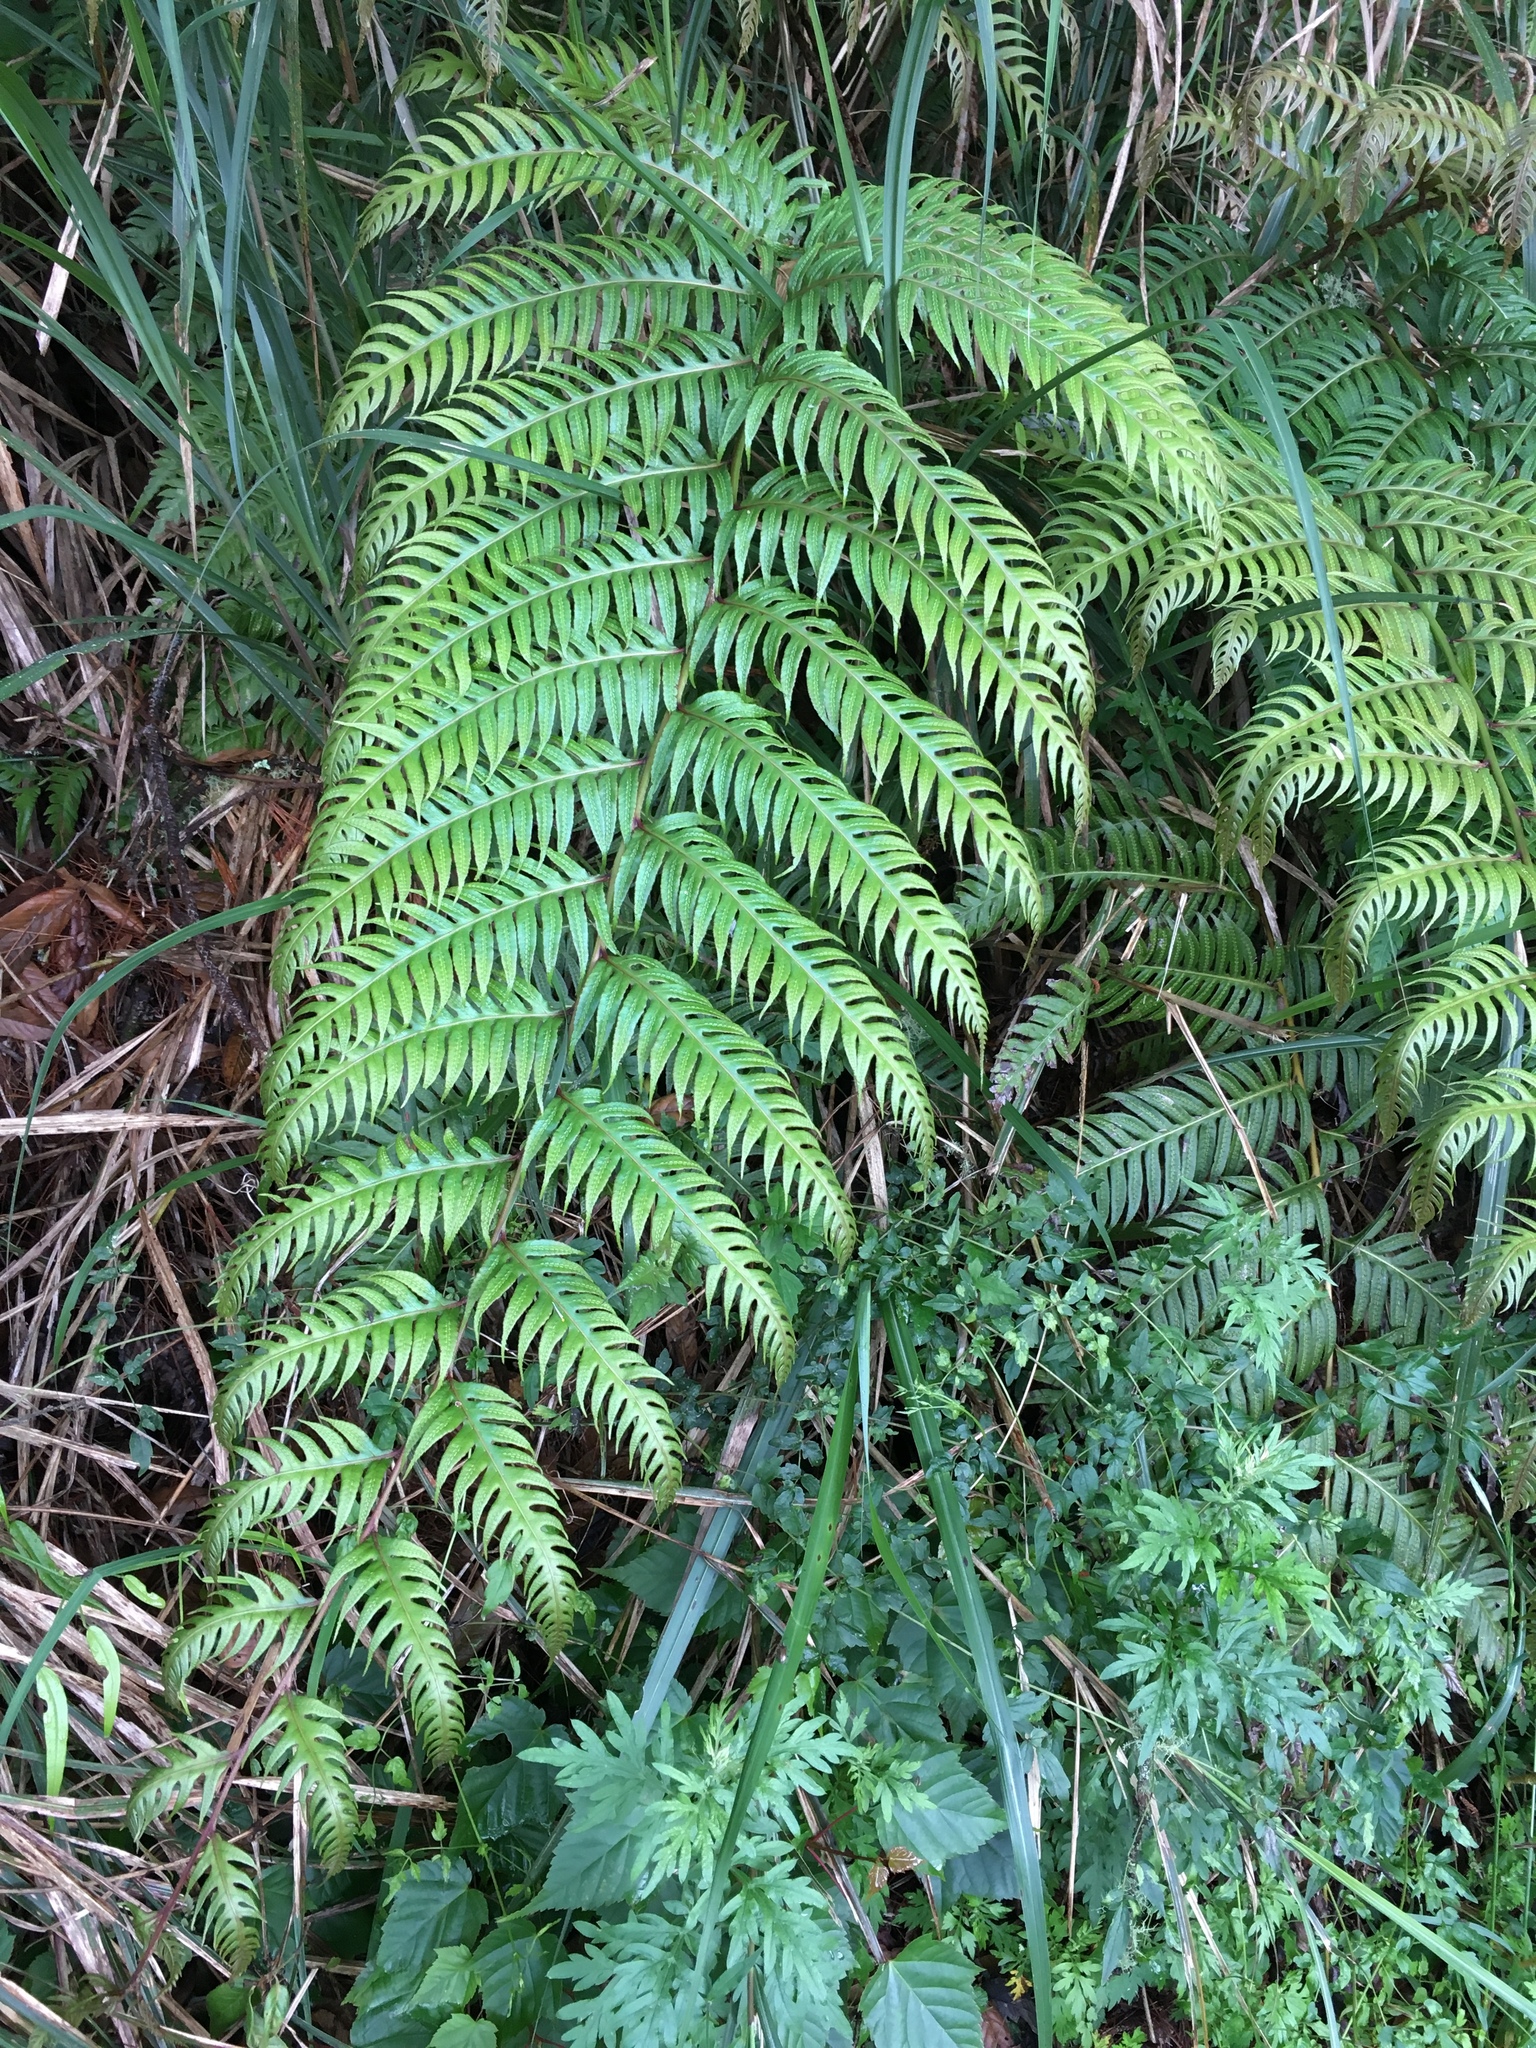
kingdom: Plantae
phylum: Tracheophyta
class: Polypodiopsida
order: Polypodiales
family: Blechnaceae
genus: Woodwardia
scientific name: Woodwardia unigemmata
